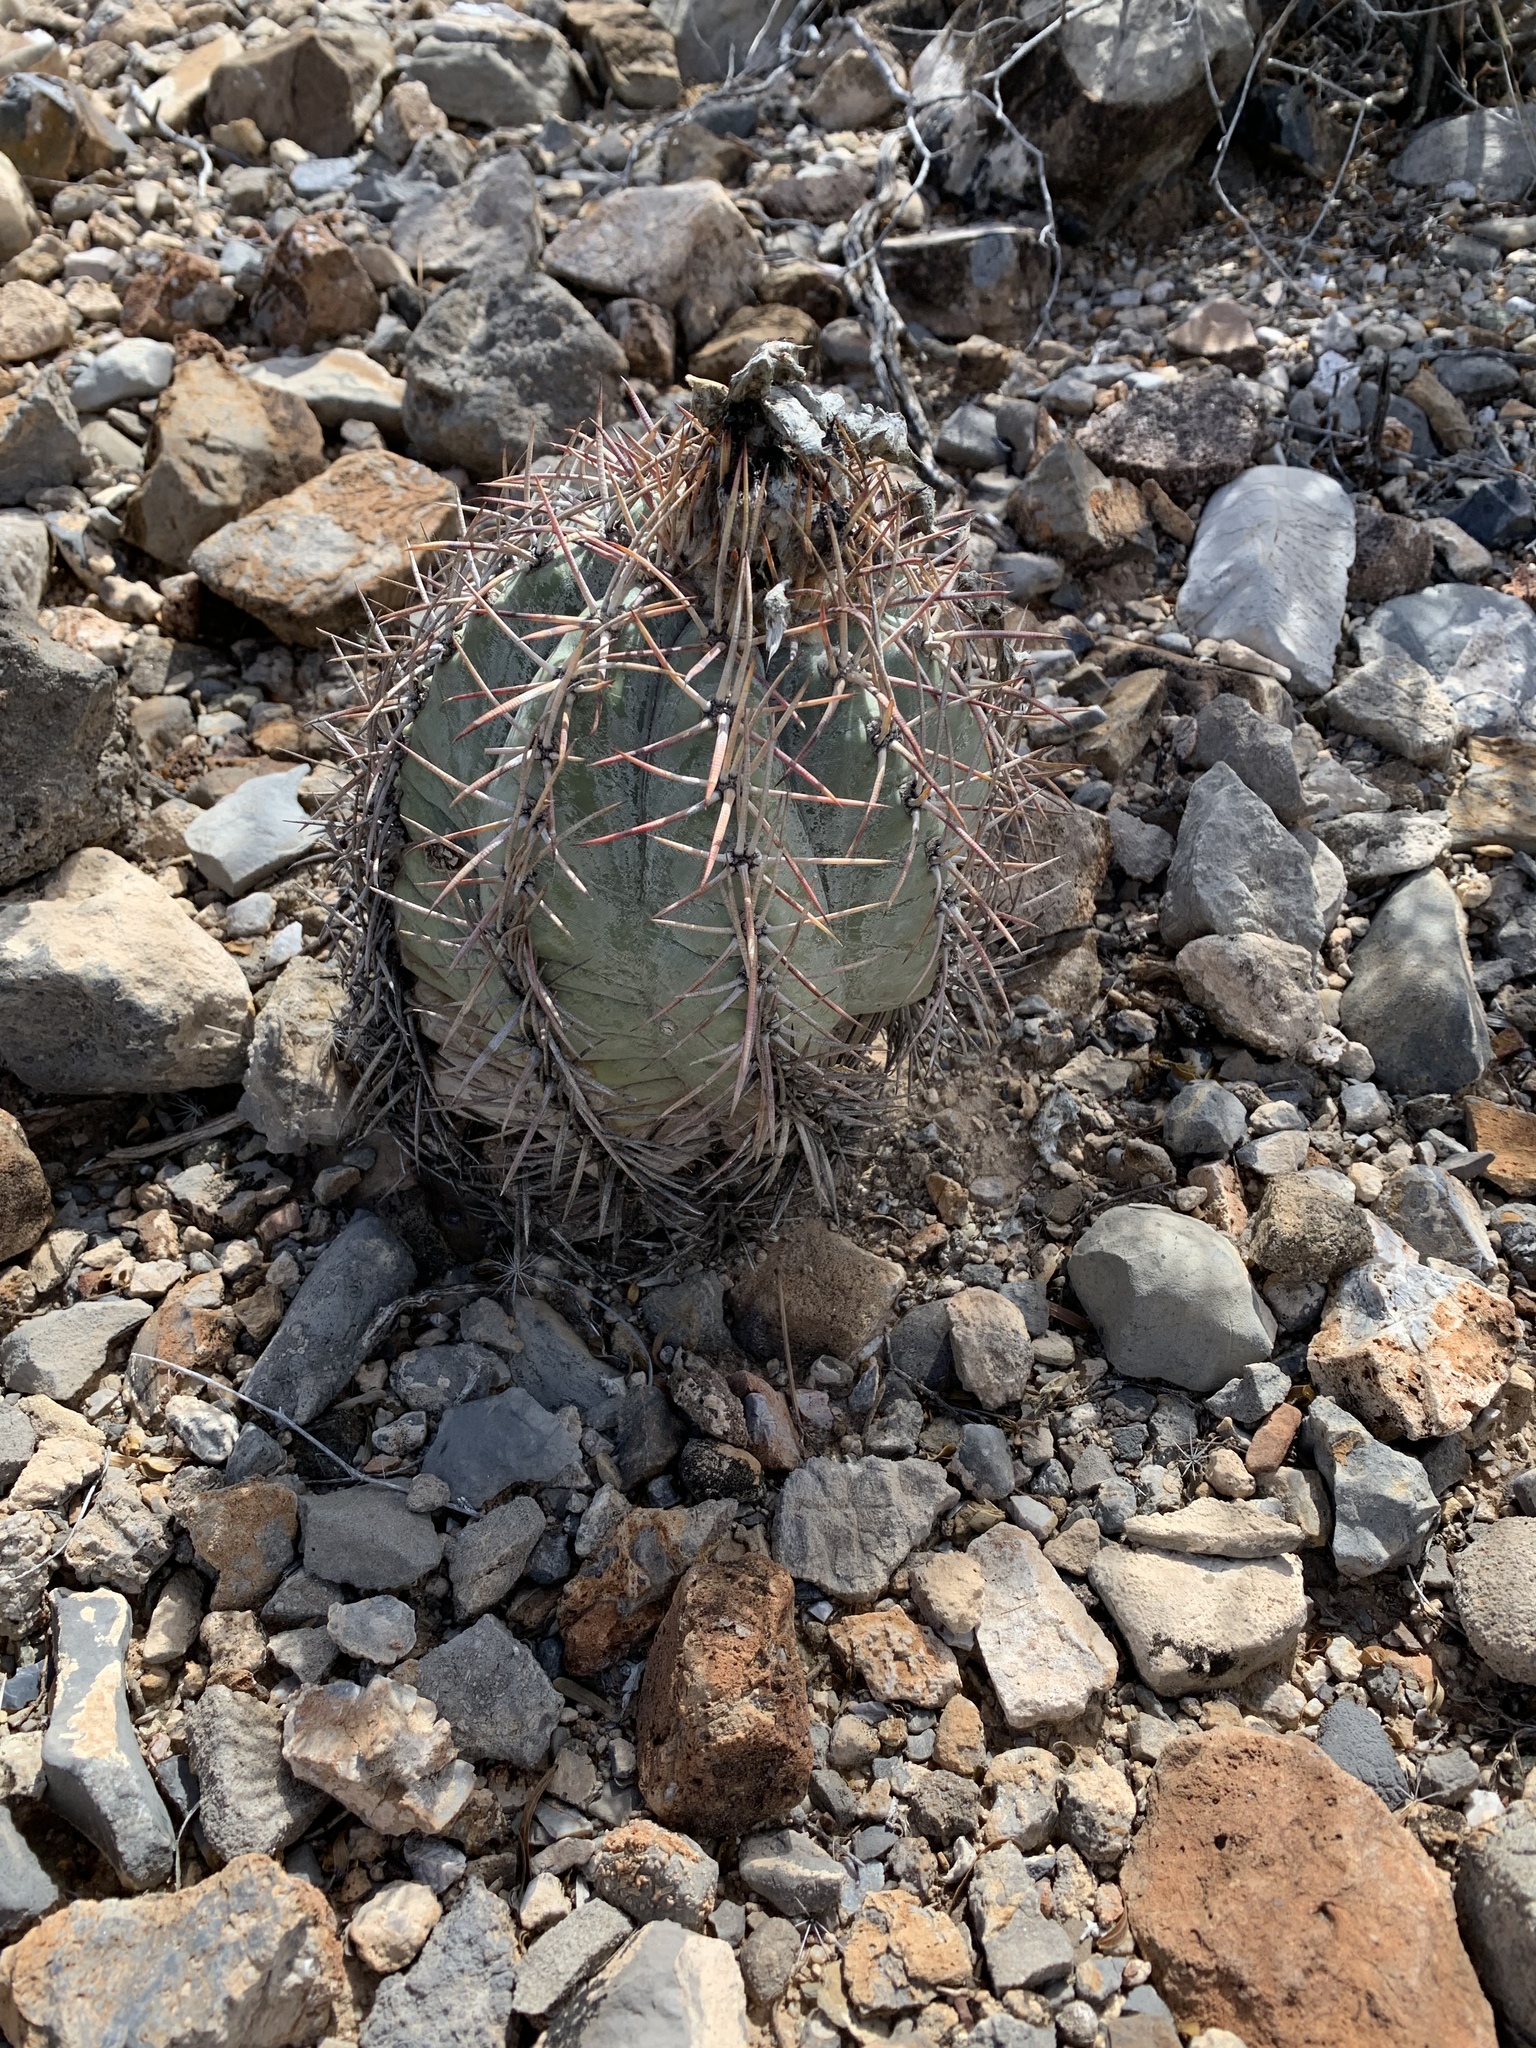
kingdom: Plantae
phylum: Tracheophyta
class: Magnoliopsida
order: Caryophyllales
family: Cactaceae
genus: Echinocactus
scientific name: Echinocactus horizonthalonius
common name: Devilshead
